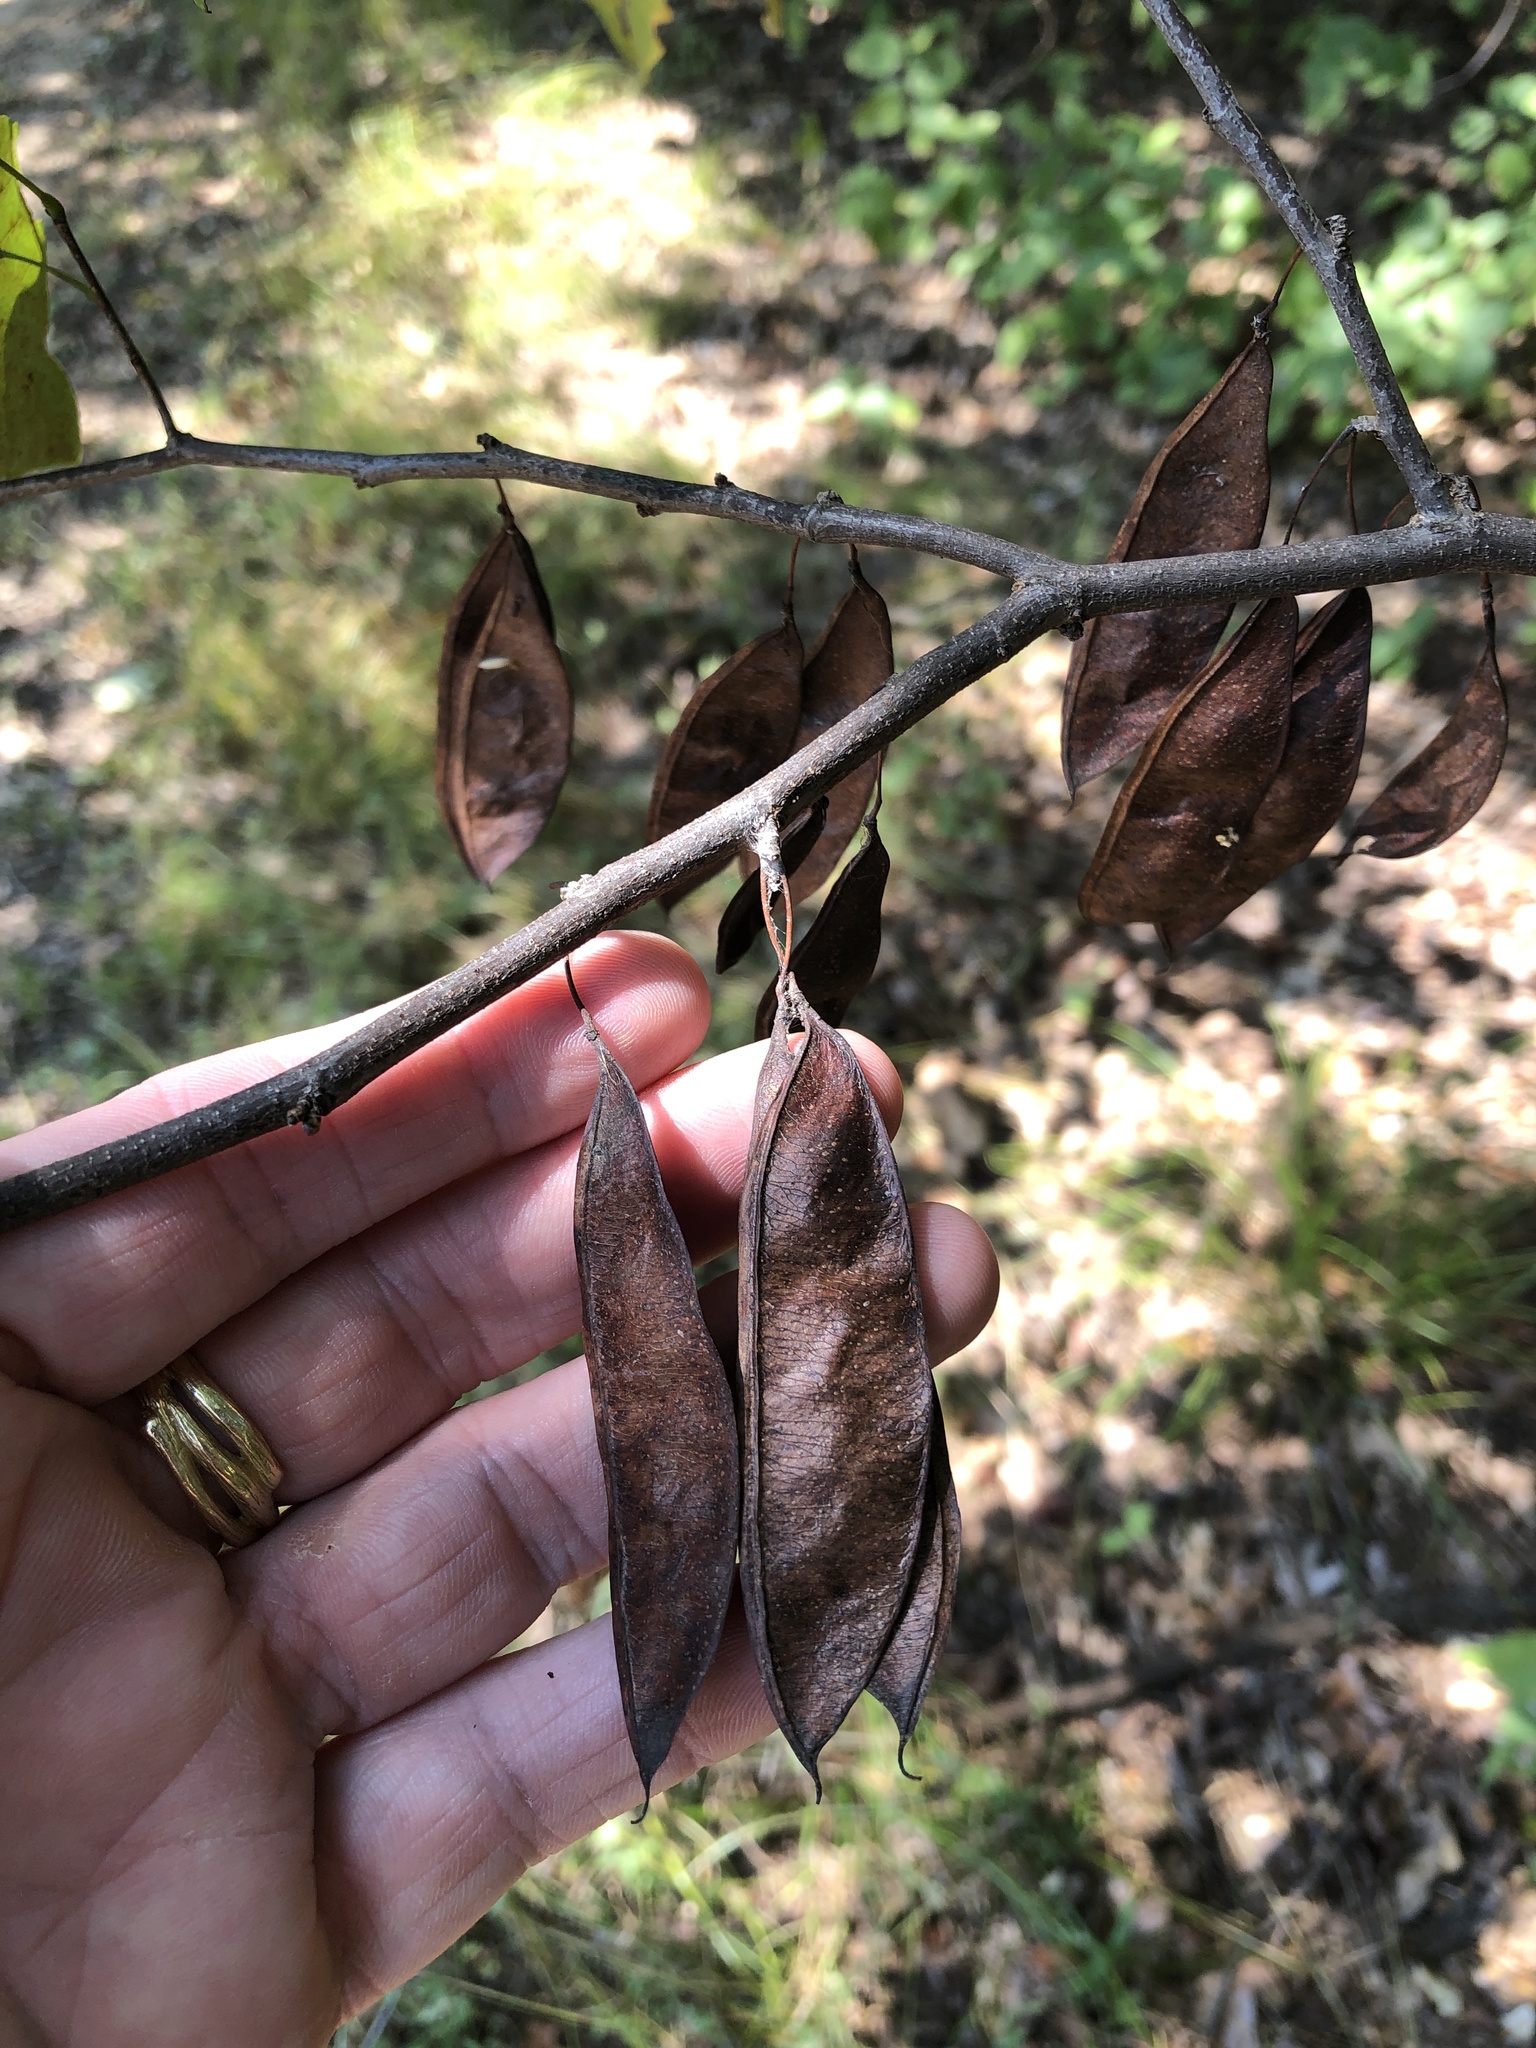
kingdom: Plantae
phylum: Tracheophyta
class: Magnoliopsida
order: Fabales
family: Fabaceae
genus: Cercis
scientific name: Cercis canadensis
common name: Eastern redbud
